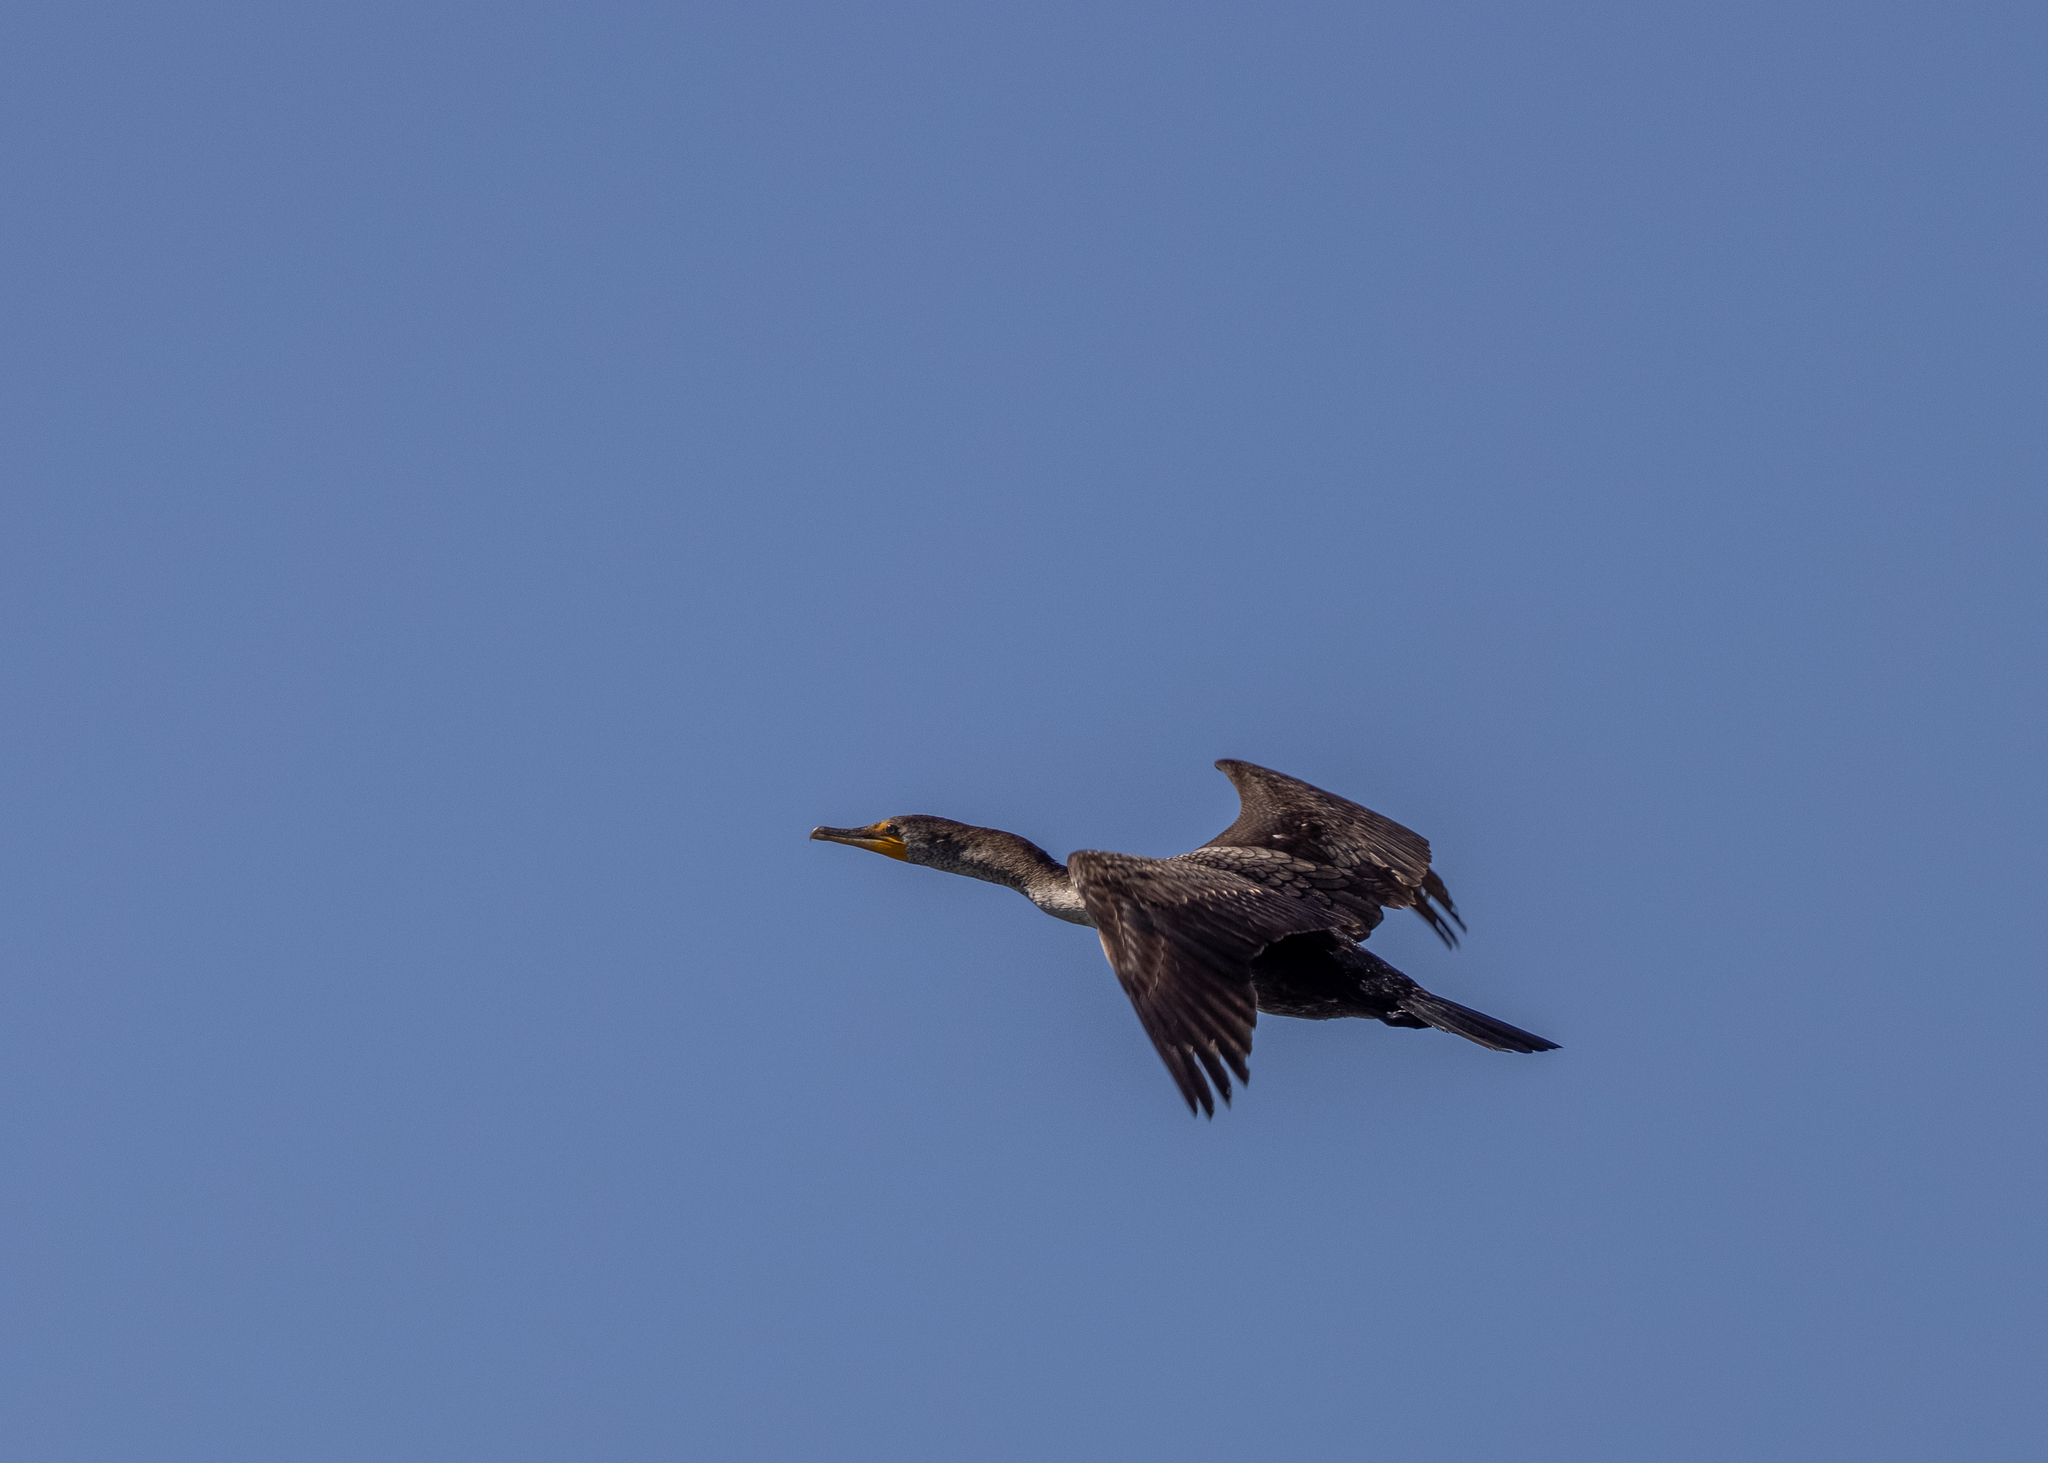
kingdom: Animalia
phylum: Chordata
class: Aves
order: Suliformes
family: Phalacrocoracidae
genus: Phalacrocorax
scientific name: Phalacrocorax auritus
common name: Double-crested cormorant
